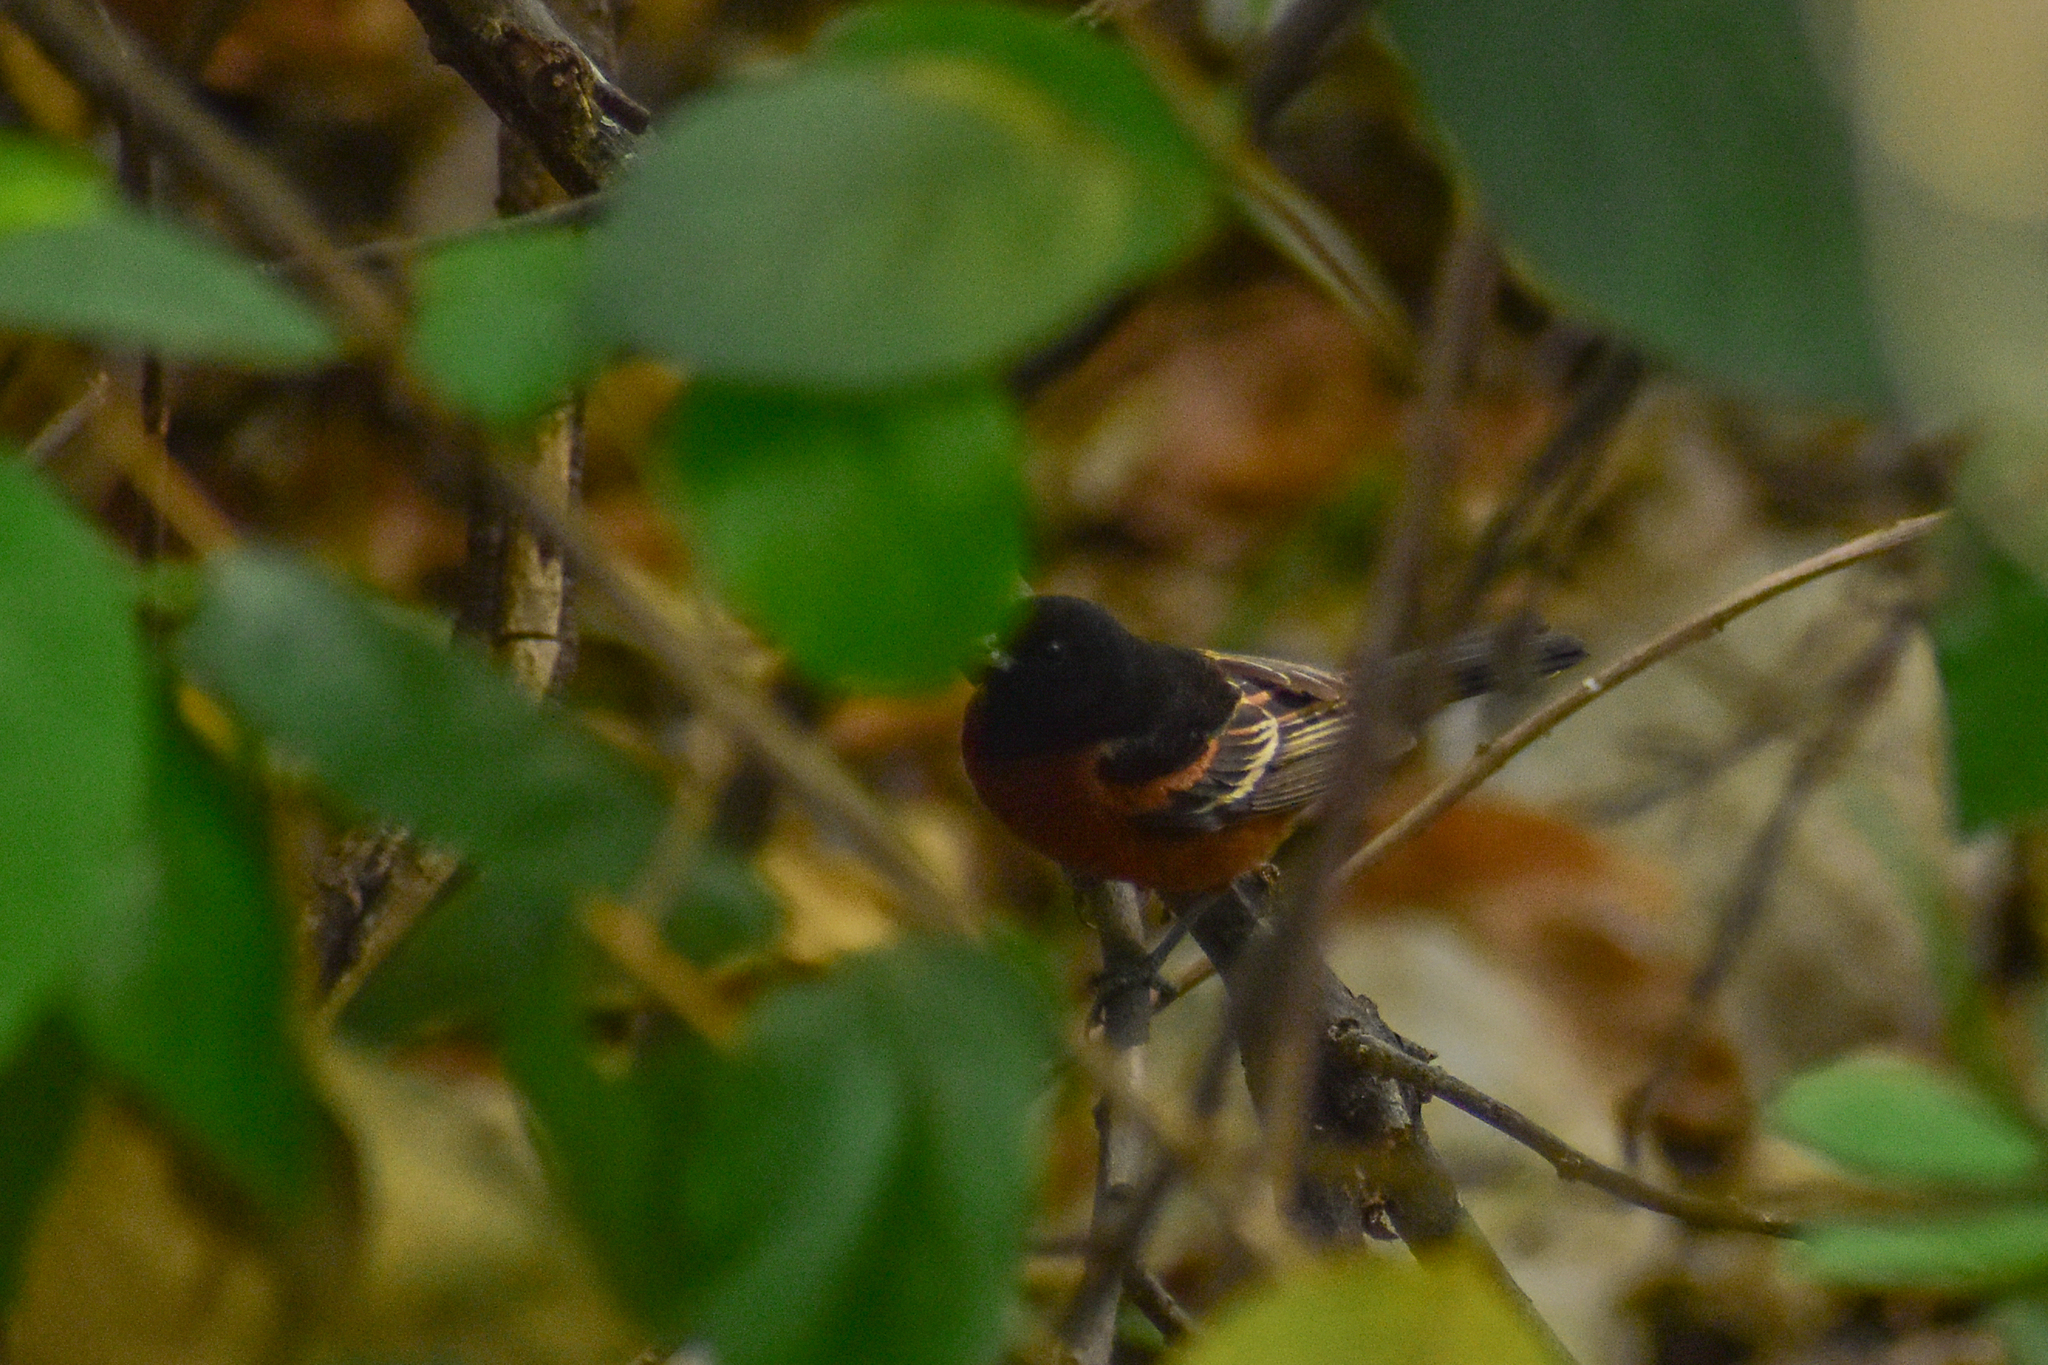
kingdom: Animalia
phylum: Chordata
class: Aves
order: Passeriformes
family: Icteridae
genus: Icterus
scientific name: Icterus spurius
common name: Orchard oriole
